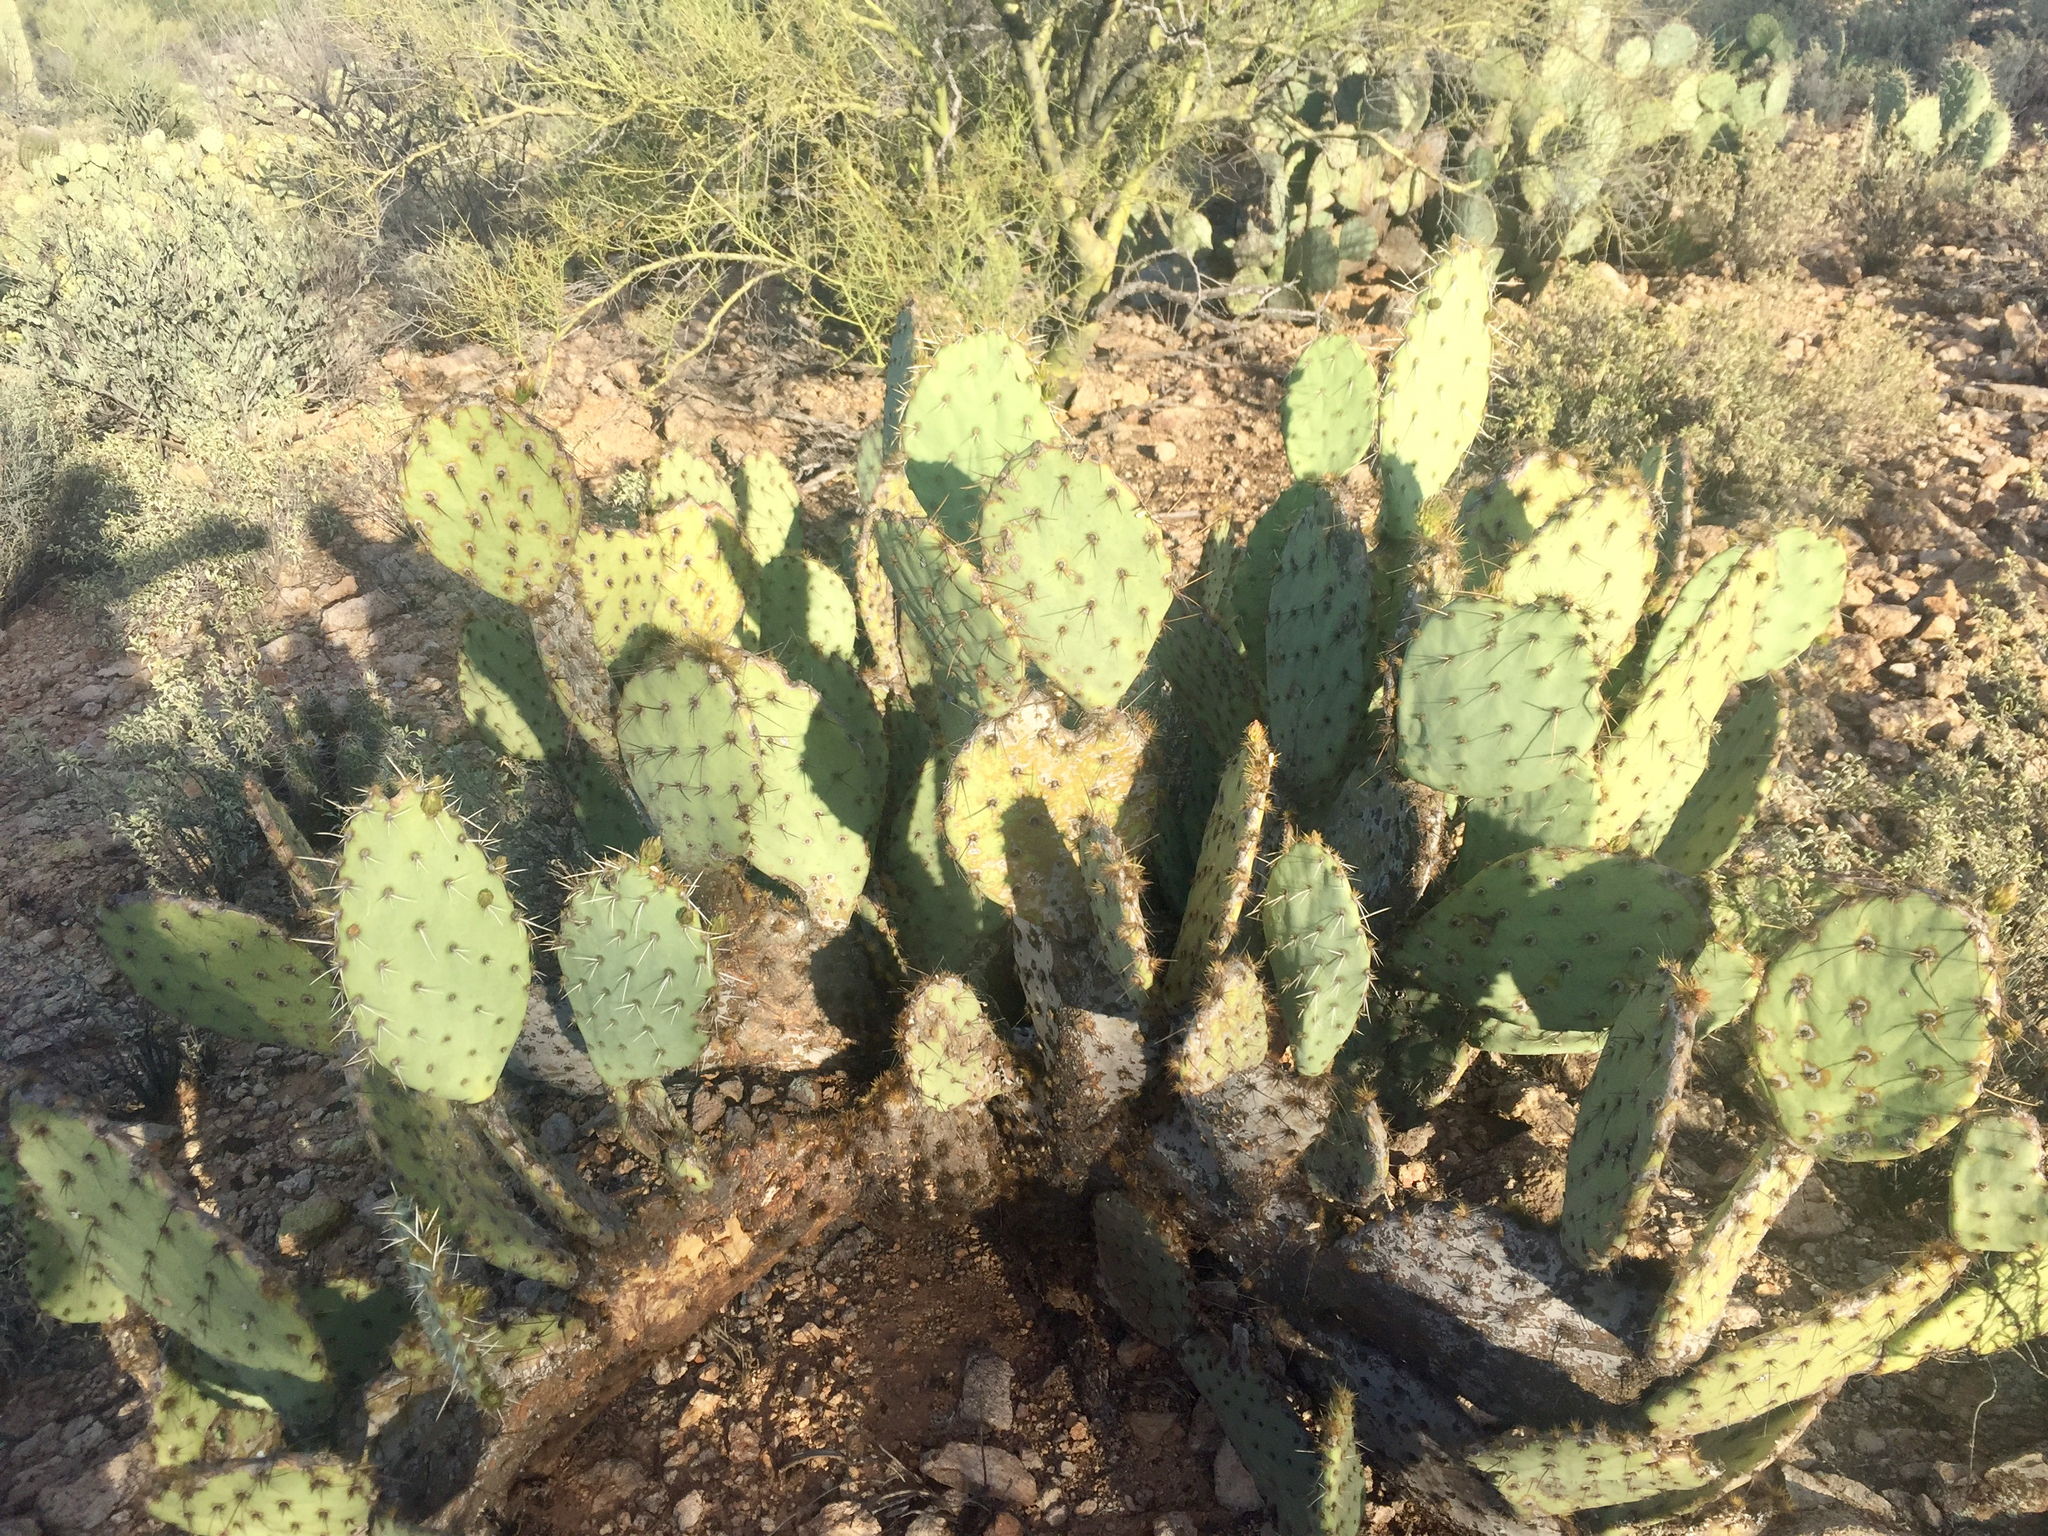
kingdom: Plantae
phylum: Tracheophyta
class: Magnoliopsida
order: Caryophyllales
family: Cactaceae
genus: Opuntia
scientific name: Opuntia engelmannii
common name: Cactus-apple
